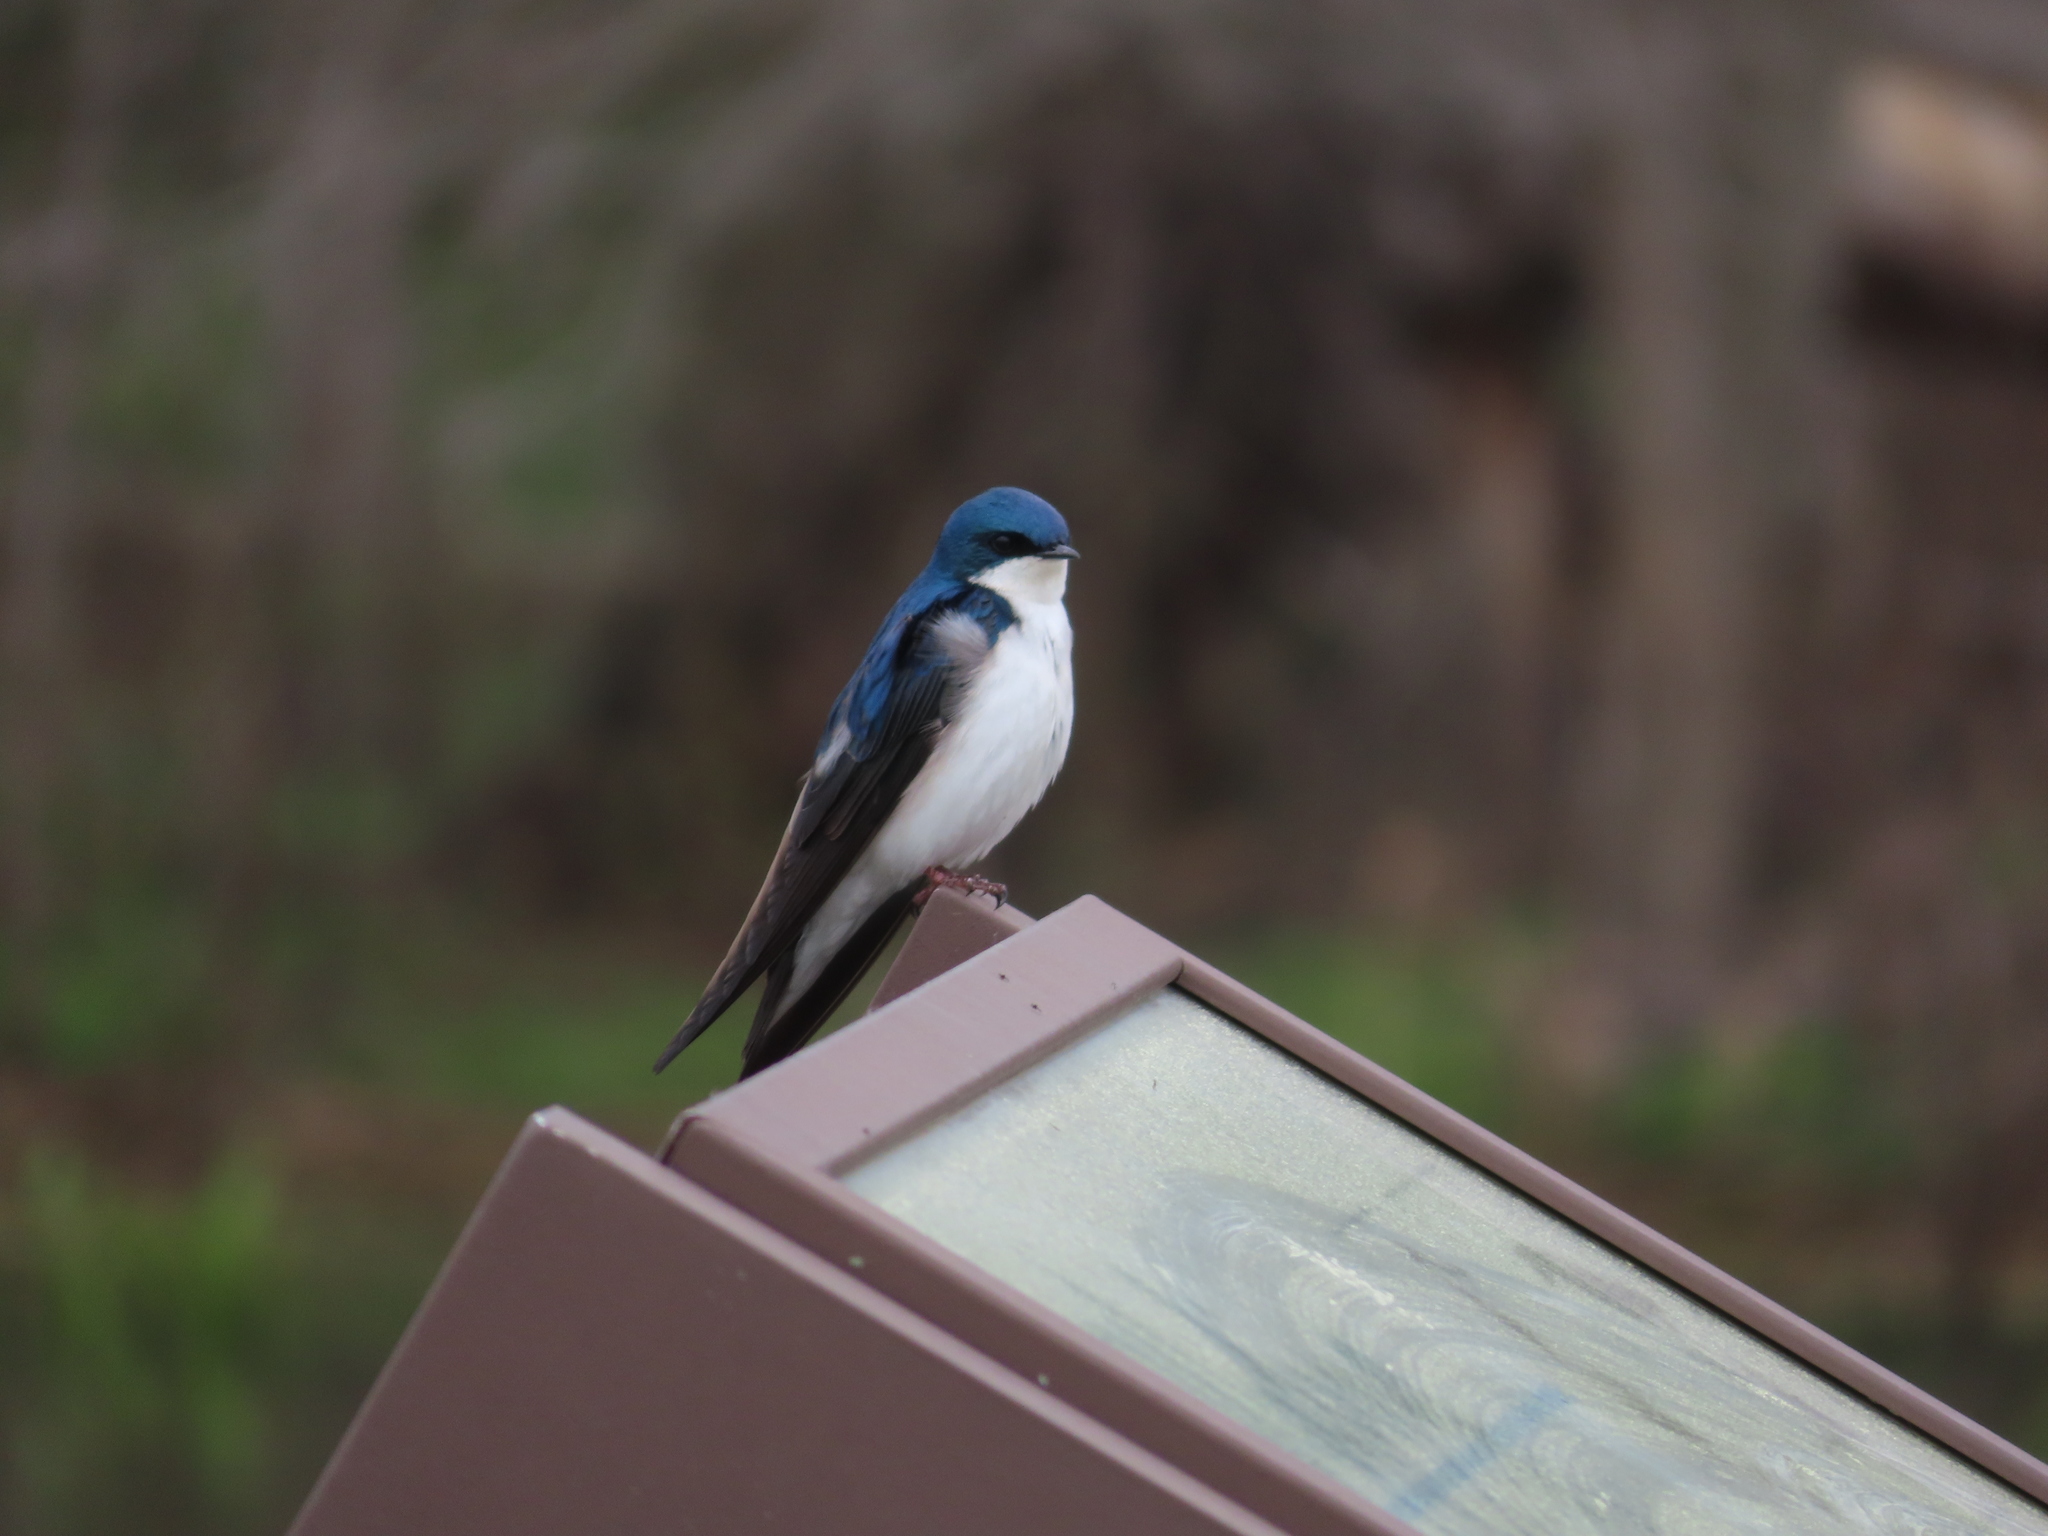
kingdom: Animalia
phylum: Chordata
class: Aves
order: Passeriformes
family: Hirundinidae
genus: Tachycineta
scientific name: Tachycineta bicolor
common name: Tree swallow
